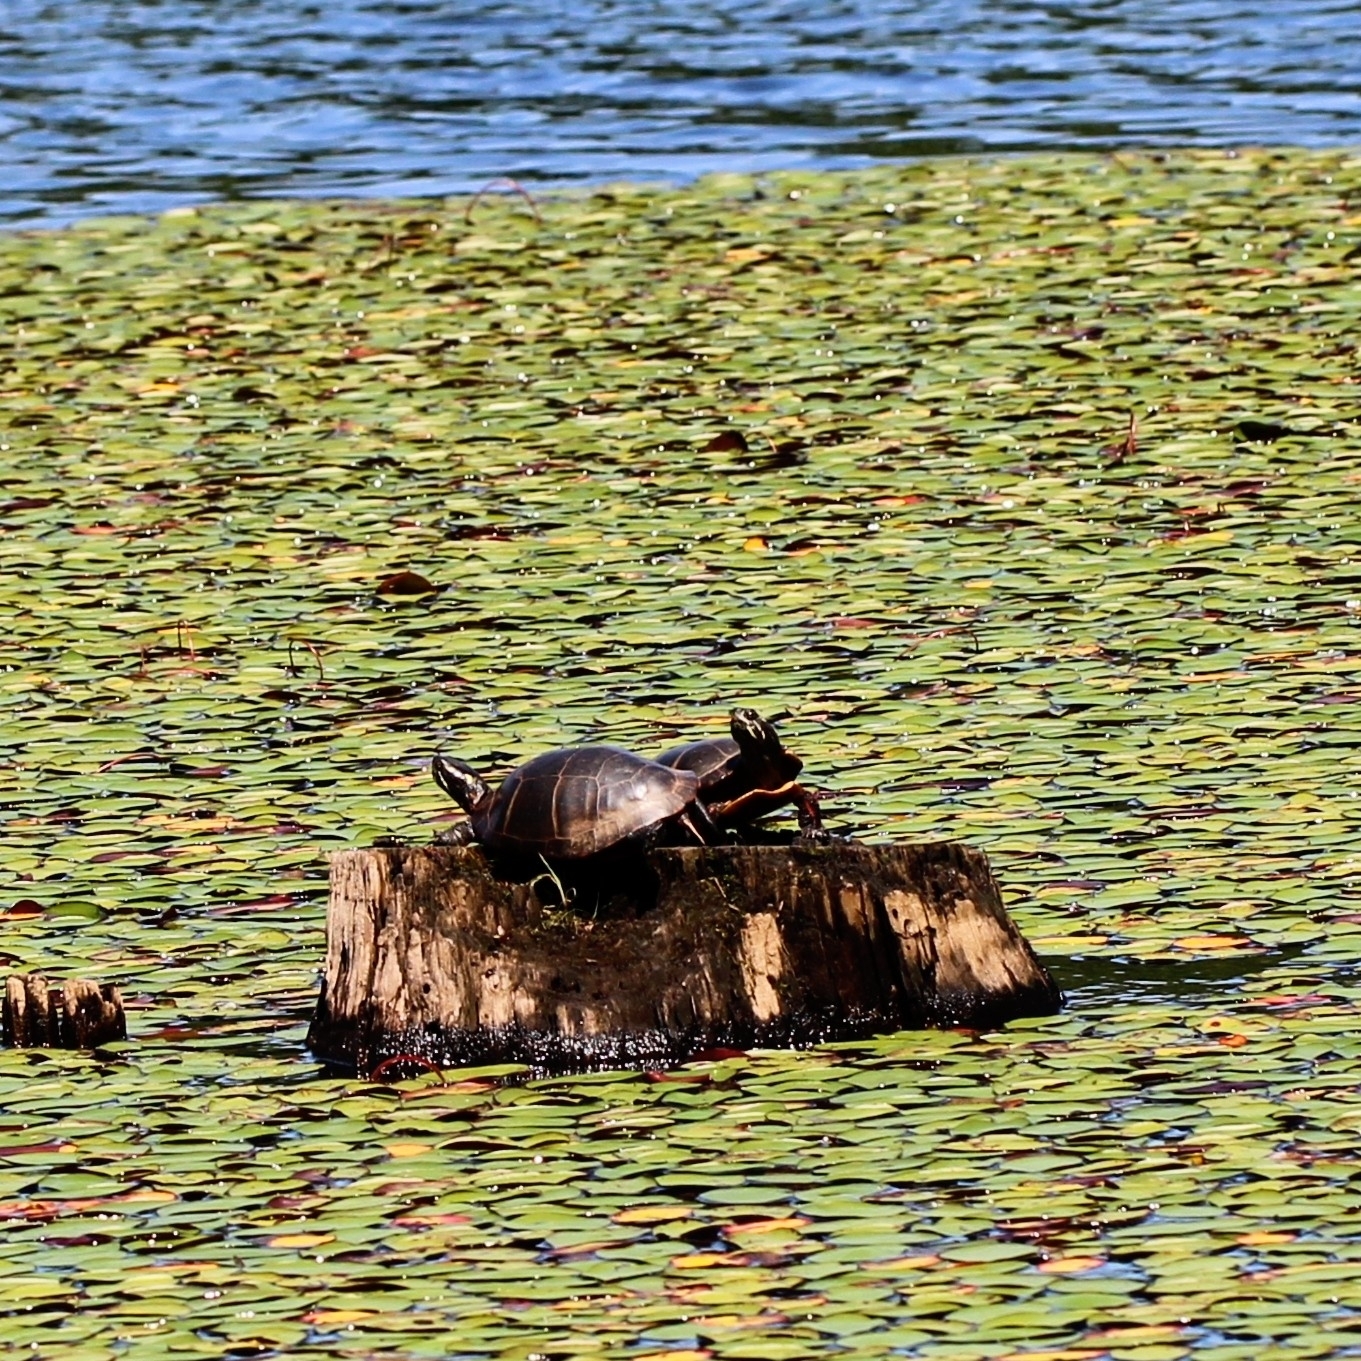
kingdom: Animalia
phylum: Chordata
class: Testudines
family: Emydidae
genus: Chrysemys
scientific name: Chrysemys picta
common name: Painted turtle
